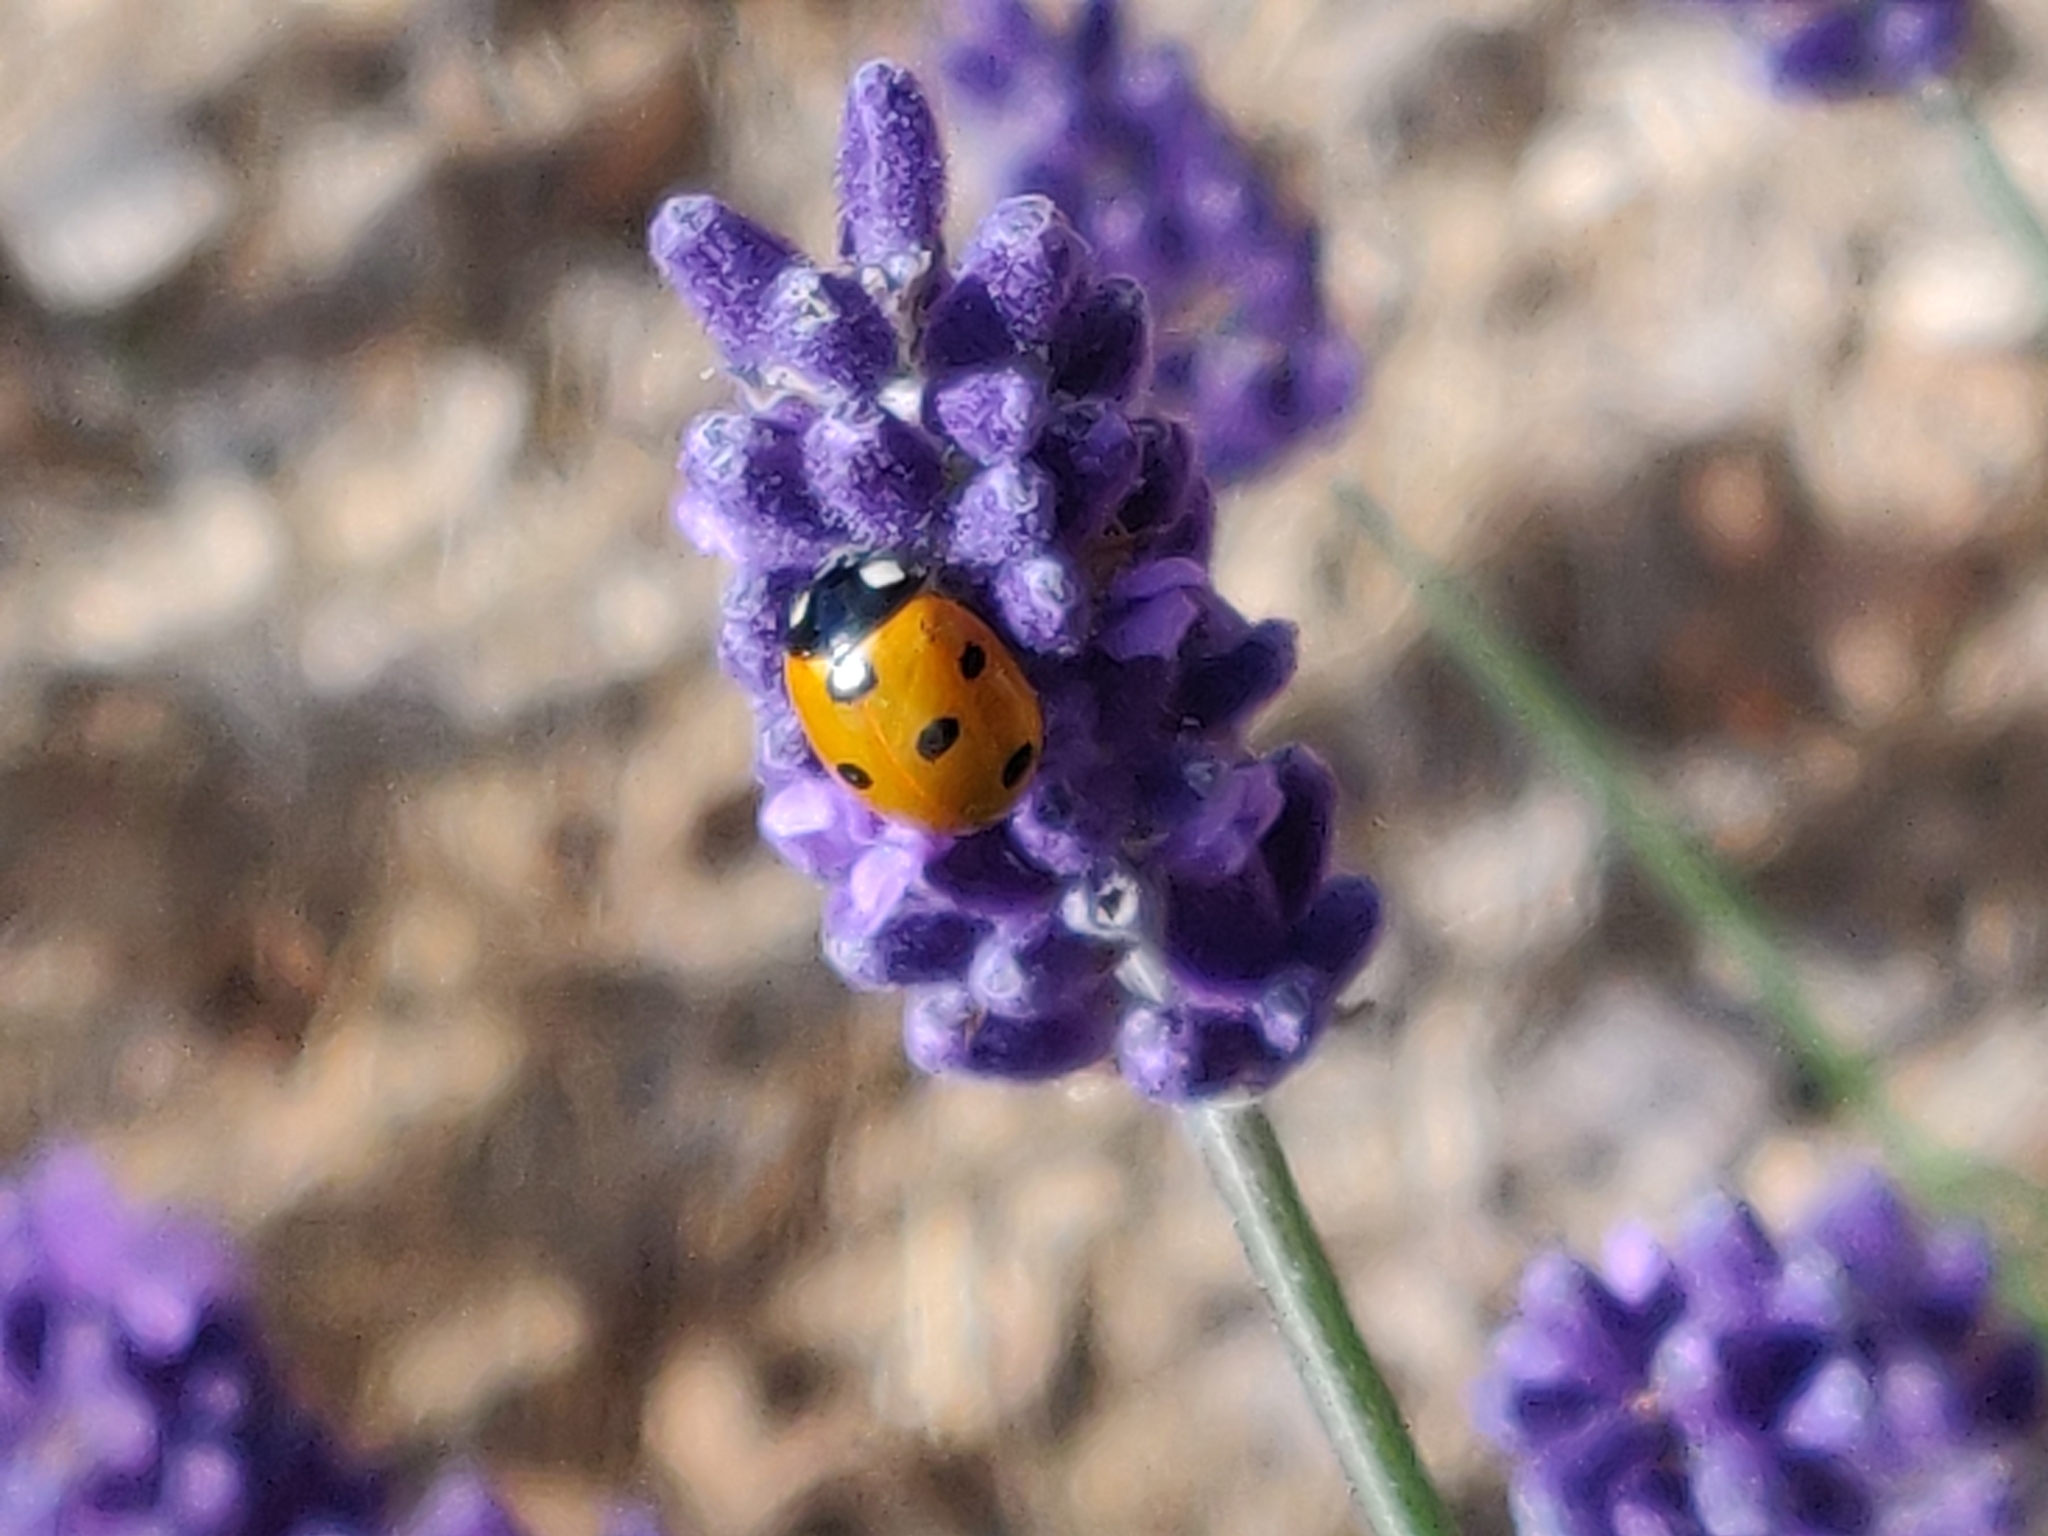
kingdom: Animalia
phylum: Arthropoda
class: Insecta
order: Coleoptera
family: Coccinellidae
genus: Coccinella
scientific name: Coccinella septempunctata
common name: Sevenspotted lady beetle
